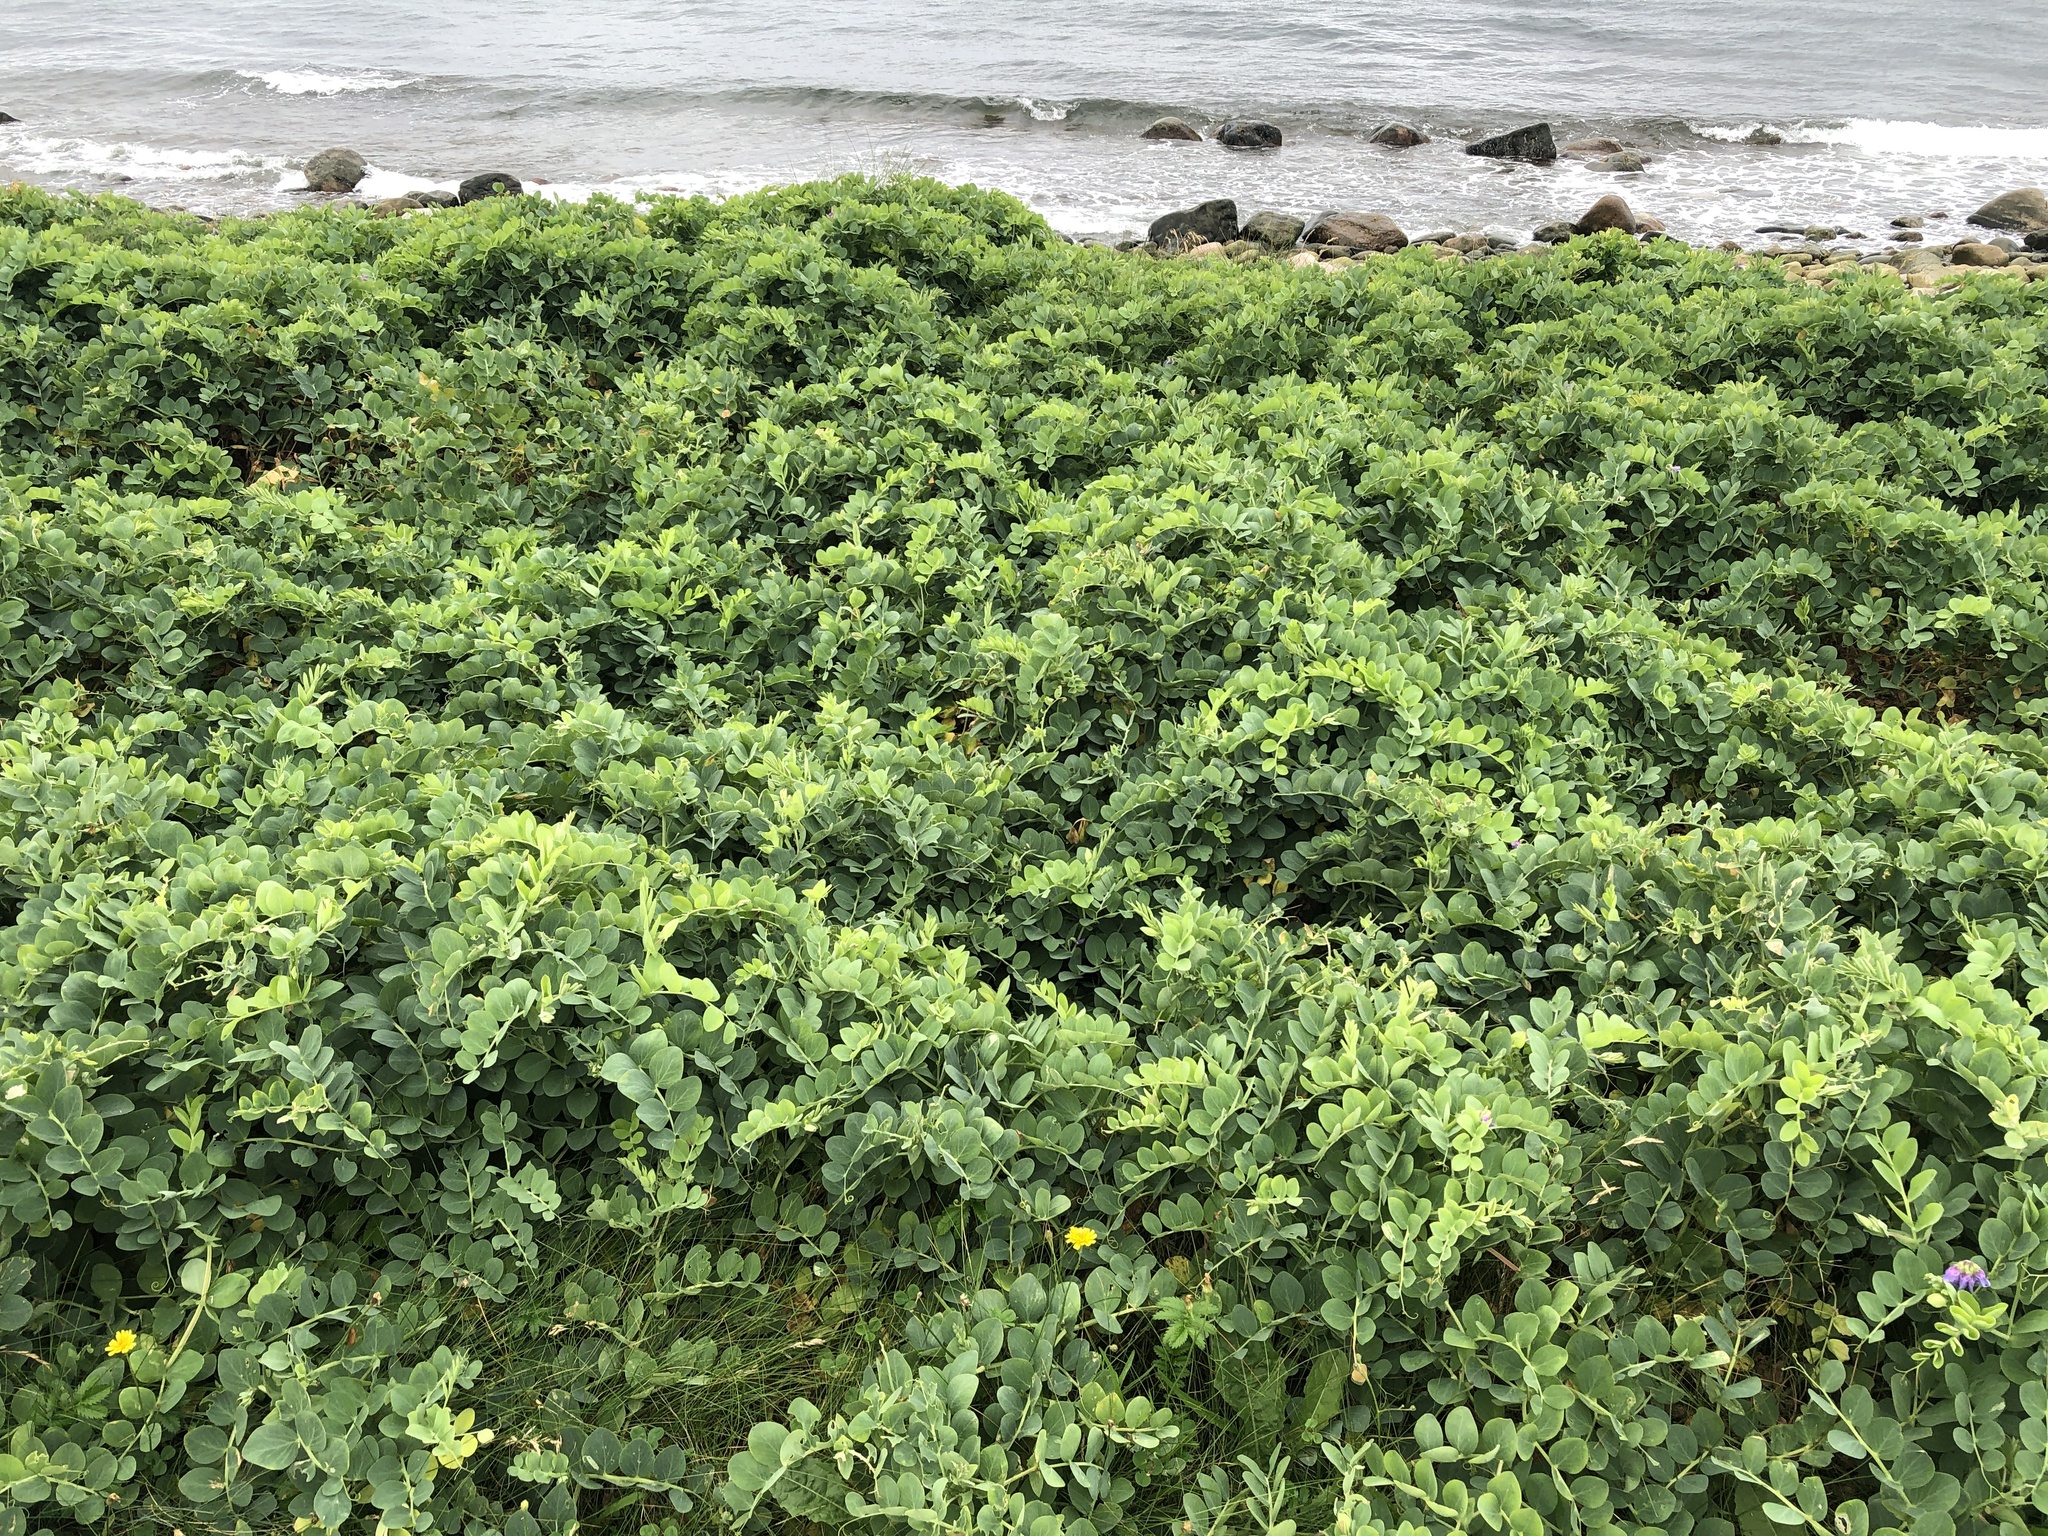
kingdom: Plantae
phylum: Tracheophyta
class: Magnoliopsida
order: Fabales
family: Fabaceae
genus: Lathyrus
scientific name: Lathyrus japonicus
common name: Sea pea
